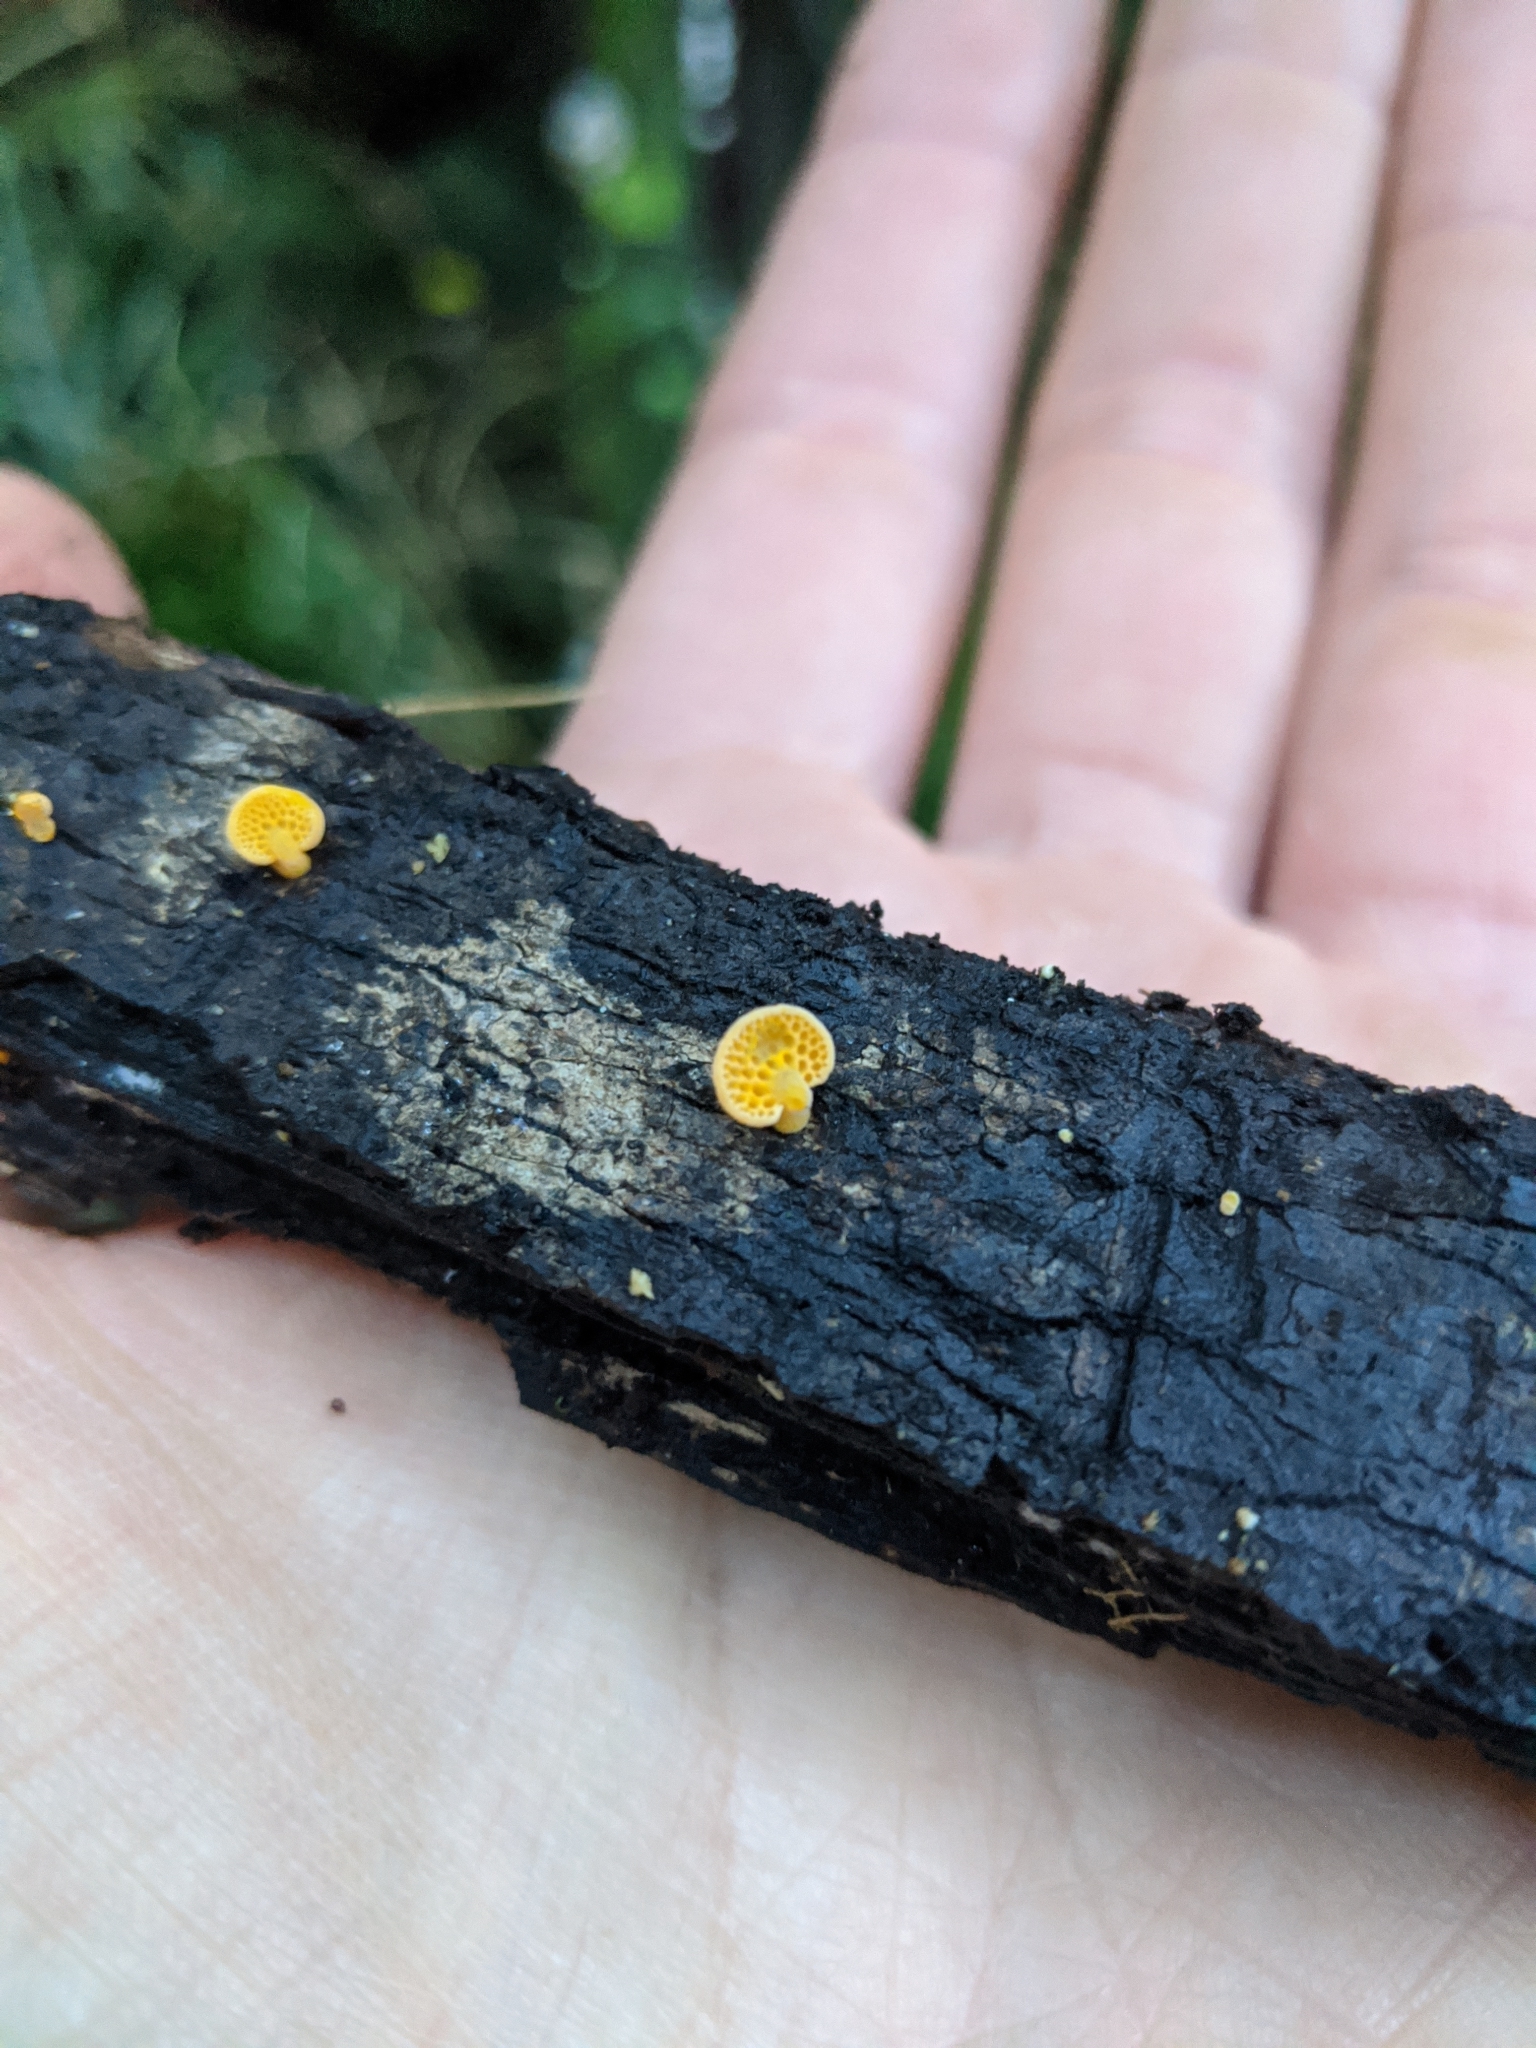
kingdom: Fungi
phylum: Basidiomycota
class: Agaricomycetes
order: Agaricales
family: Mycenaceae
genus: Favolaschia
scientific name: Favolaschia claudopus
